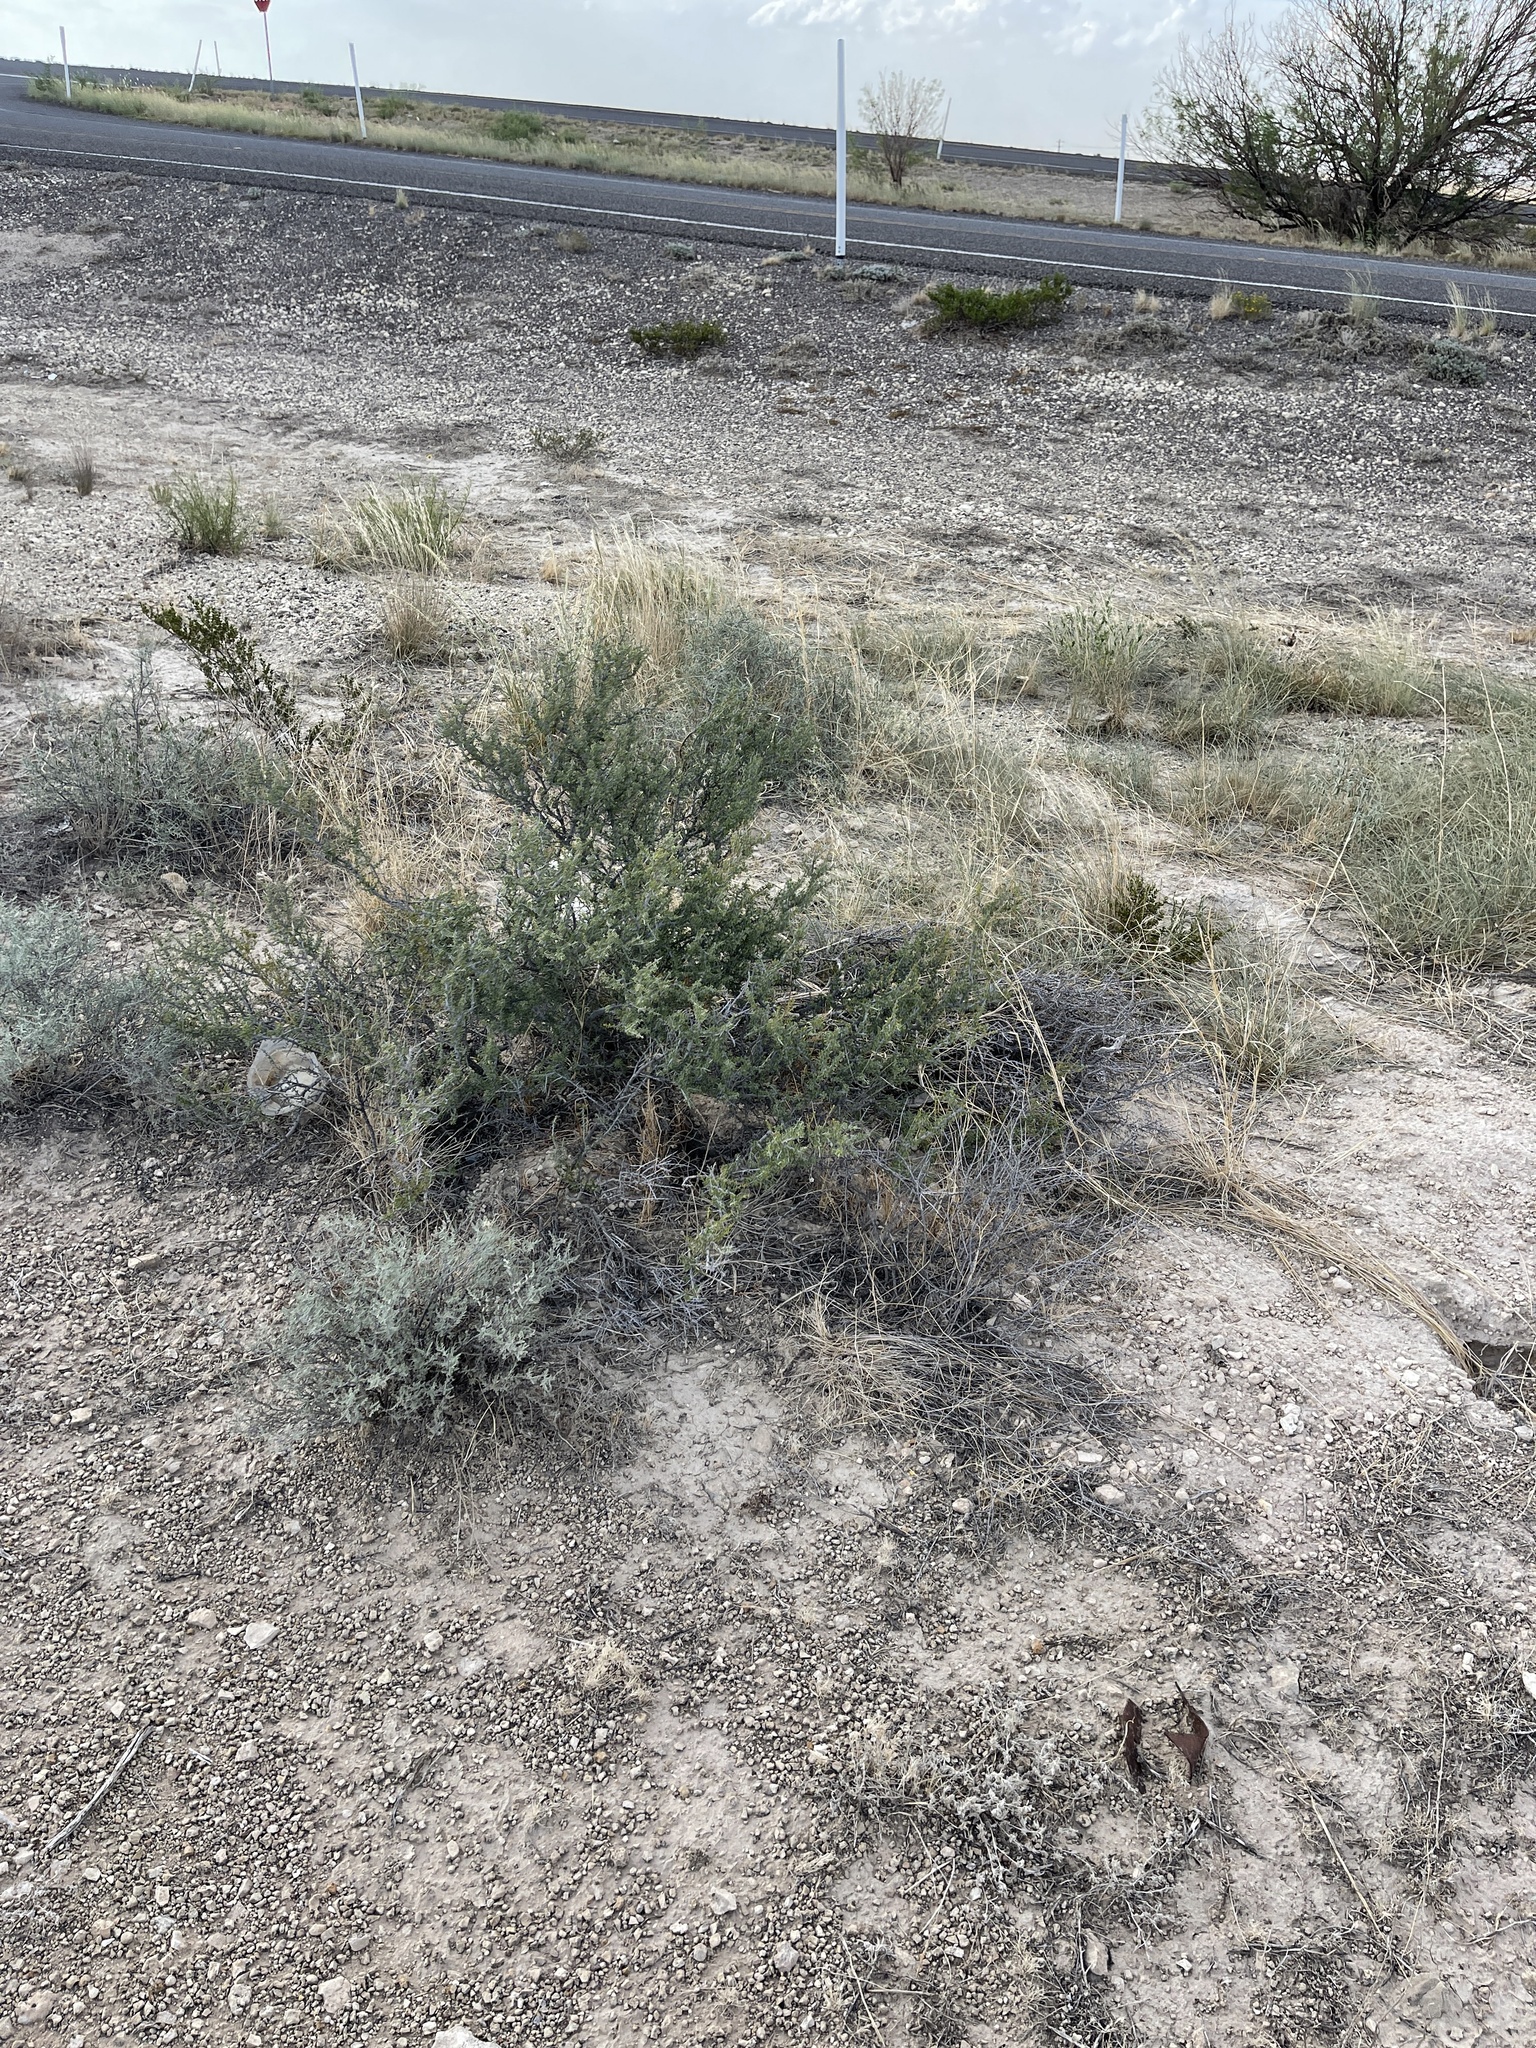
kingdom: Plantae
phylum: Tracheophyta
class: Magnoliopsida
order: Rosales
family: Rhamnaceae
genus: Condalia
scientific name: Condalia ericoides
